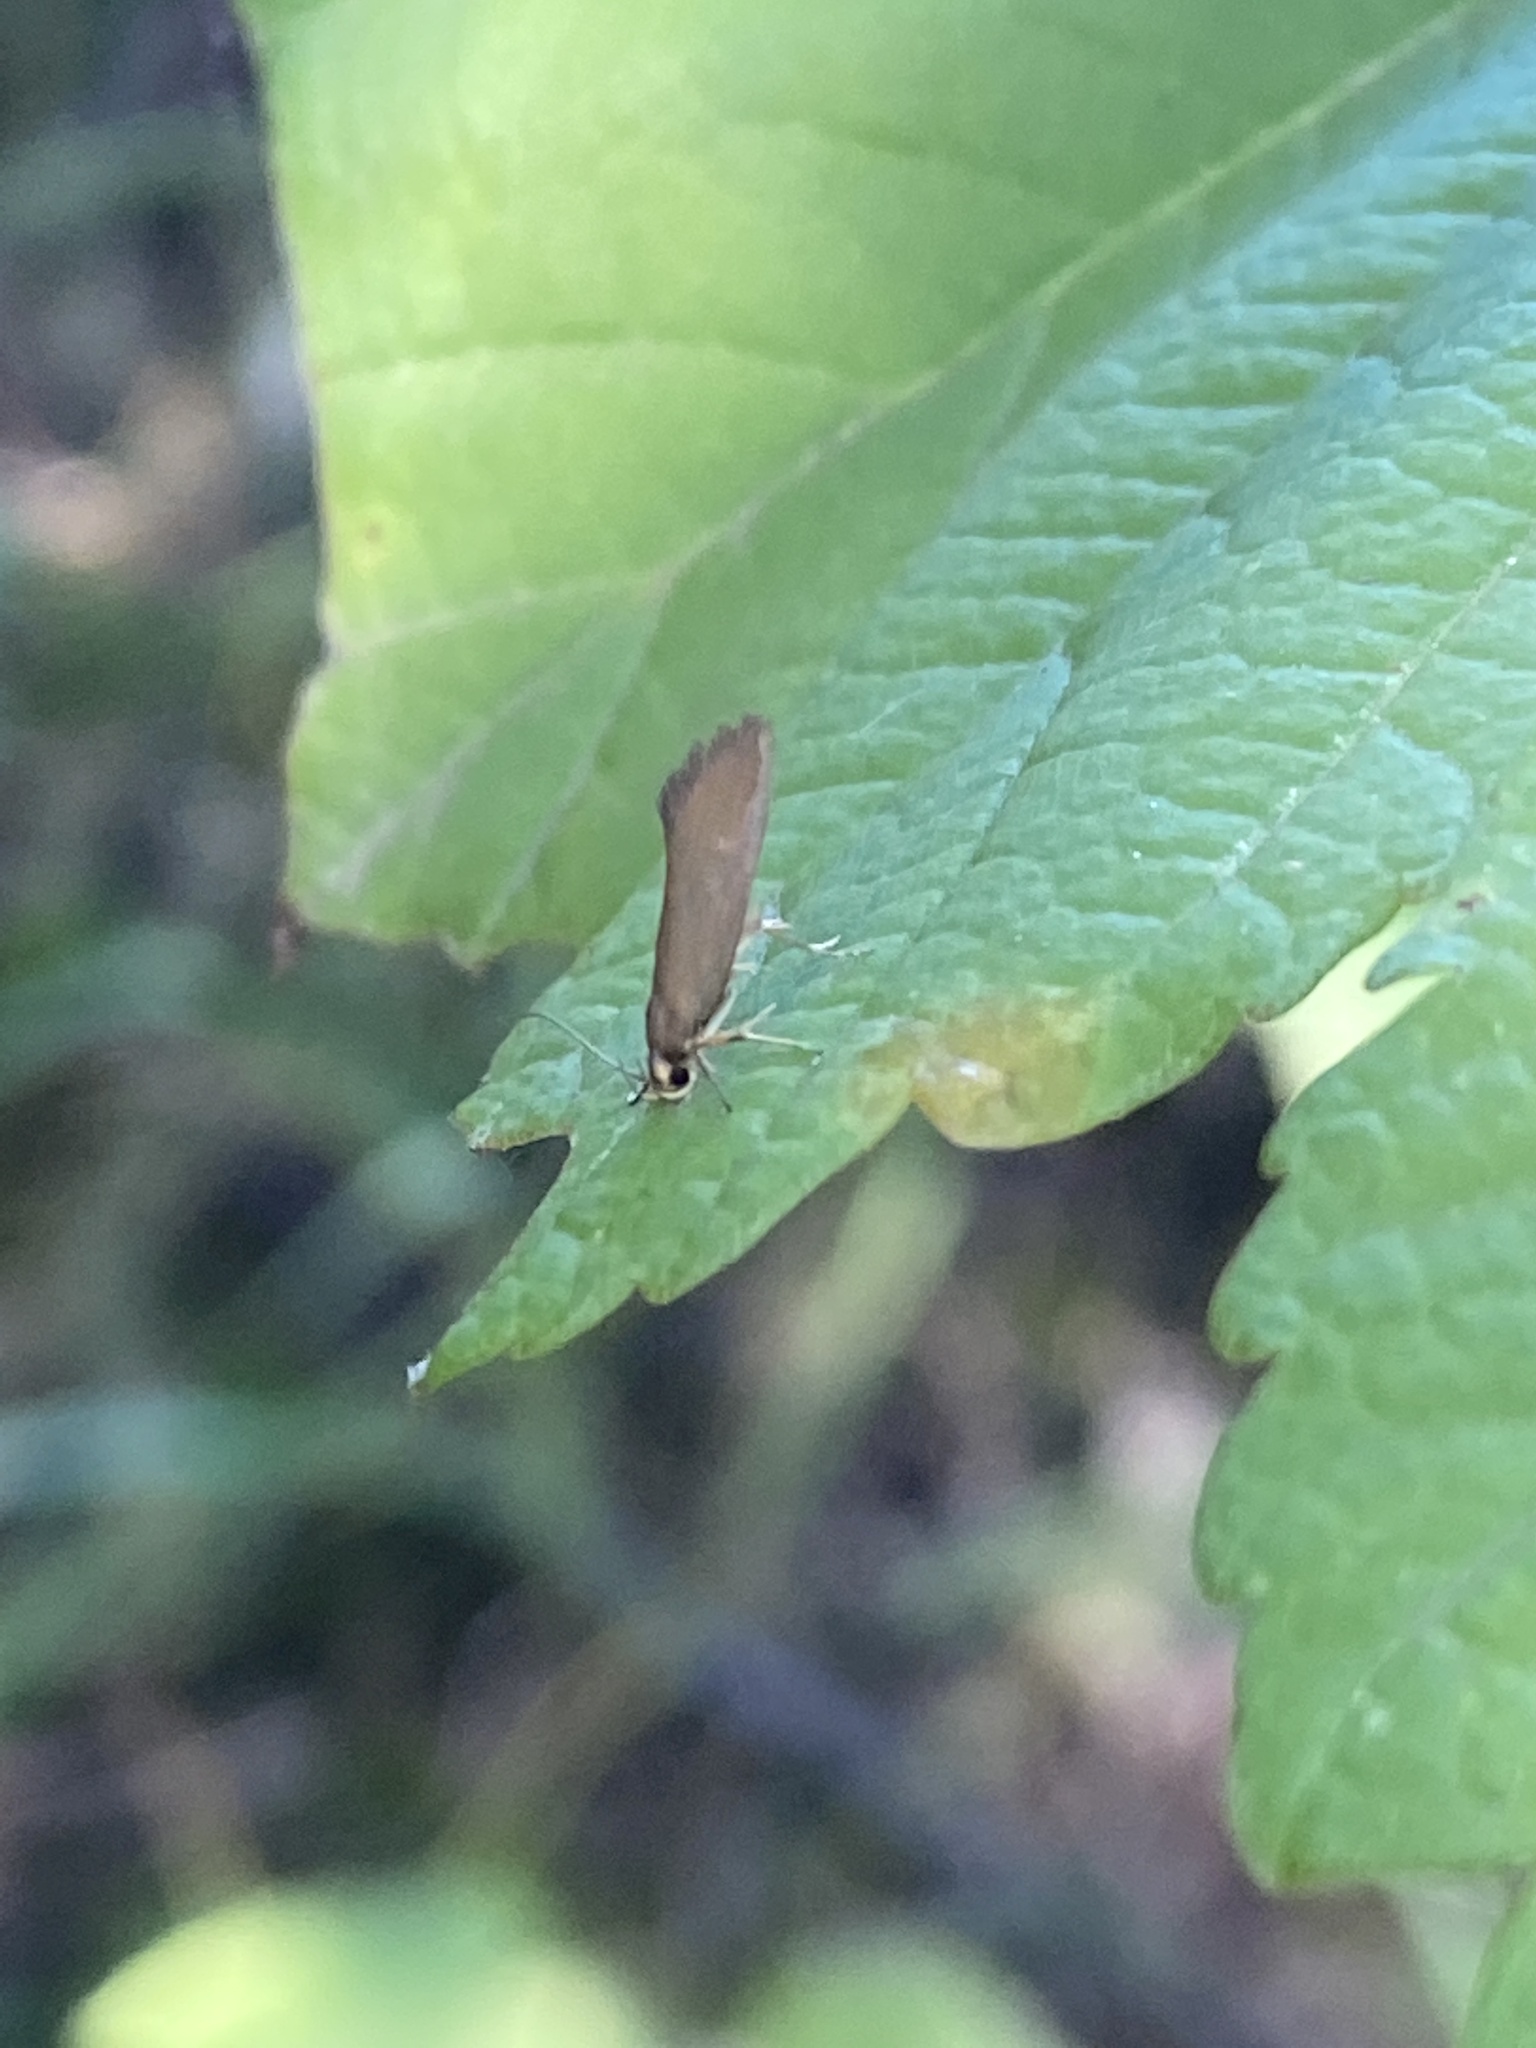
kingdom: Animalia
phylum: Arthropoda
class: Insecta
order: Lepidoptera
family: Oecophoridae
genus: Borkhausenia
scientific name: Borkhausenia Crassa unitella
